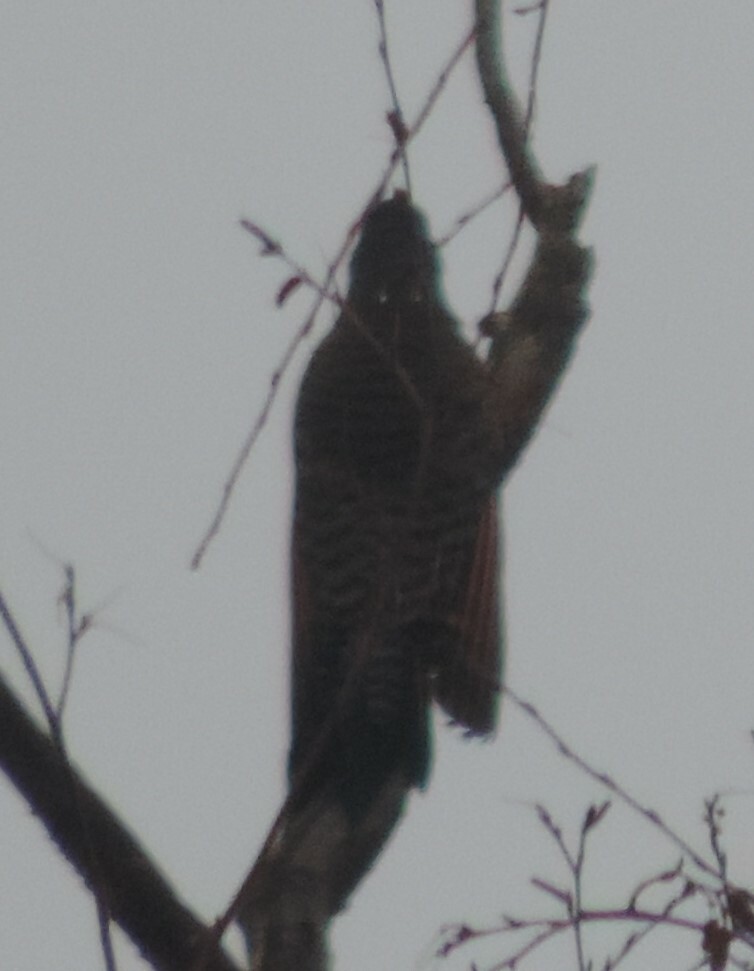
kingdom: Animalia
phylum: Chordata
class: Aves
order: Piciformes
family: Picidae
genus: Colaptes
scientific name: Colaptes auratus
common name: Northern flicker
